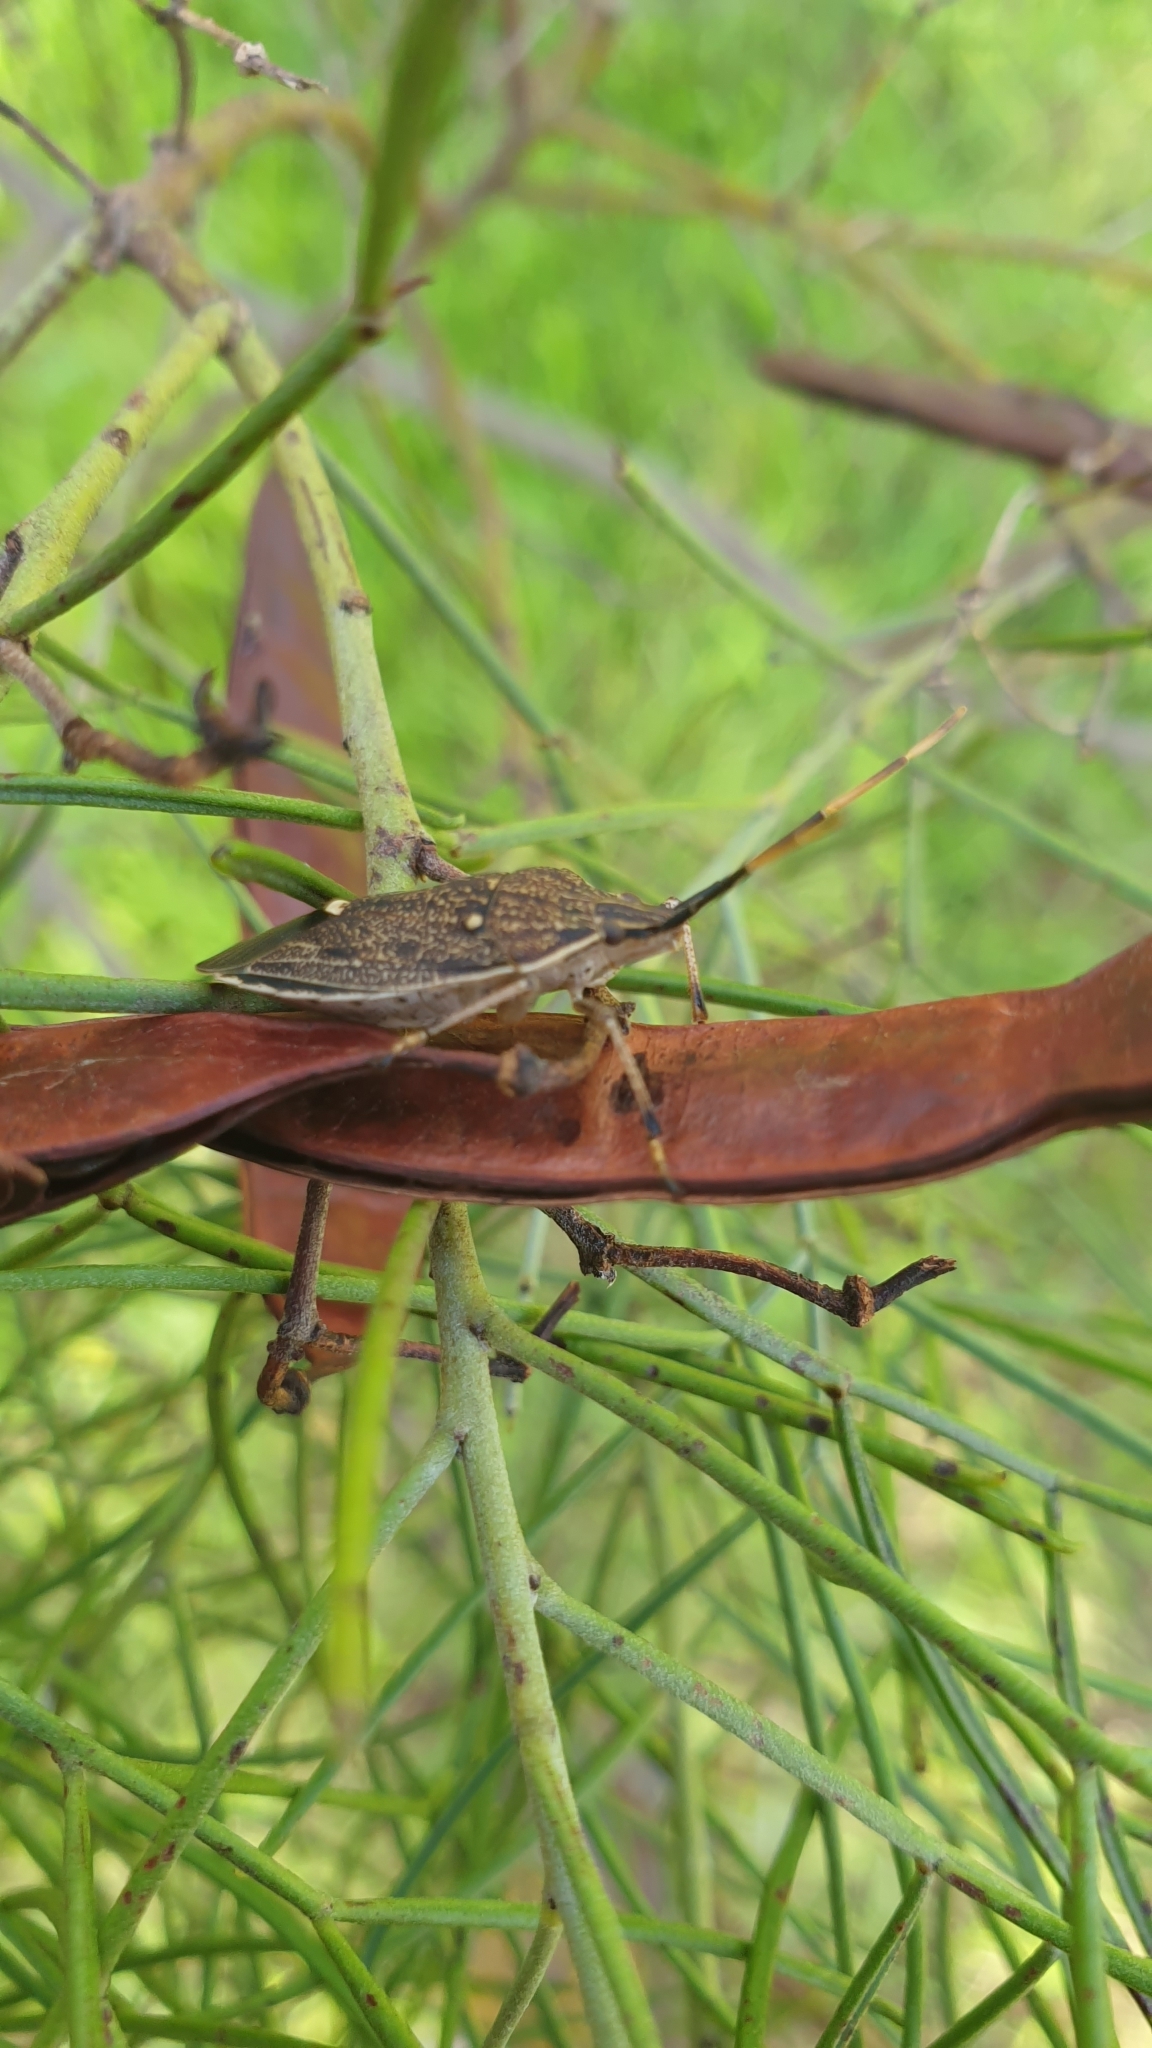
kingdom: Animalia
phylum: Arthropoda
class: Insecta
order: Hemiptera
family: Pentatomidae
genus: Poecilometis
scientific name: Poecilometis
